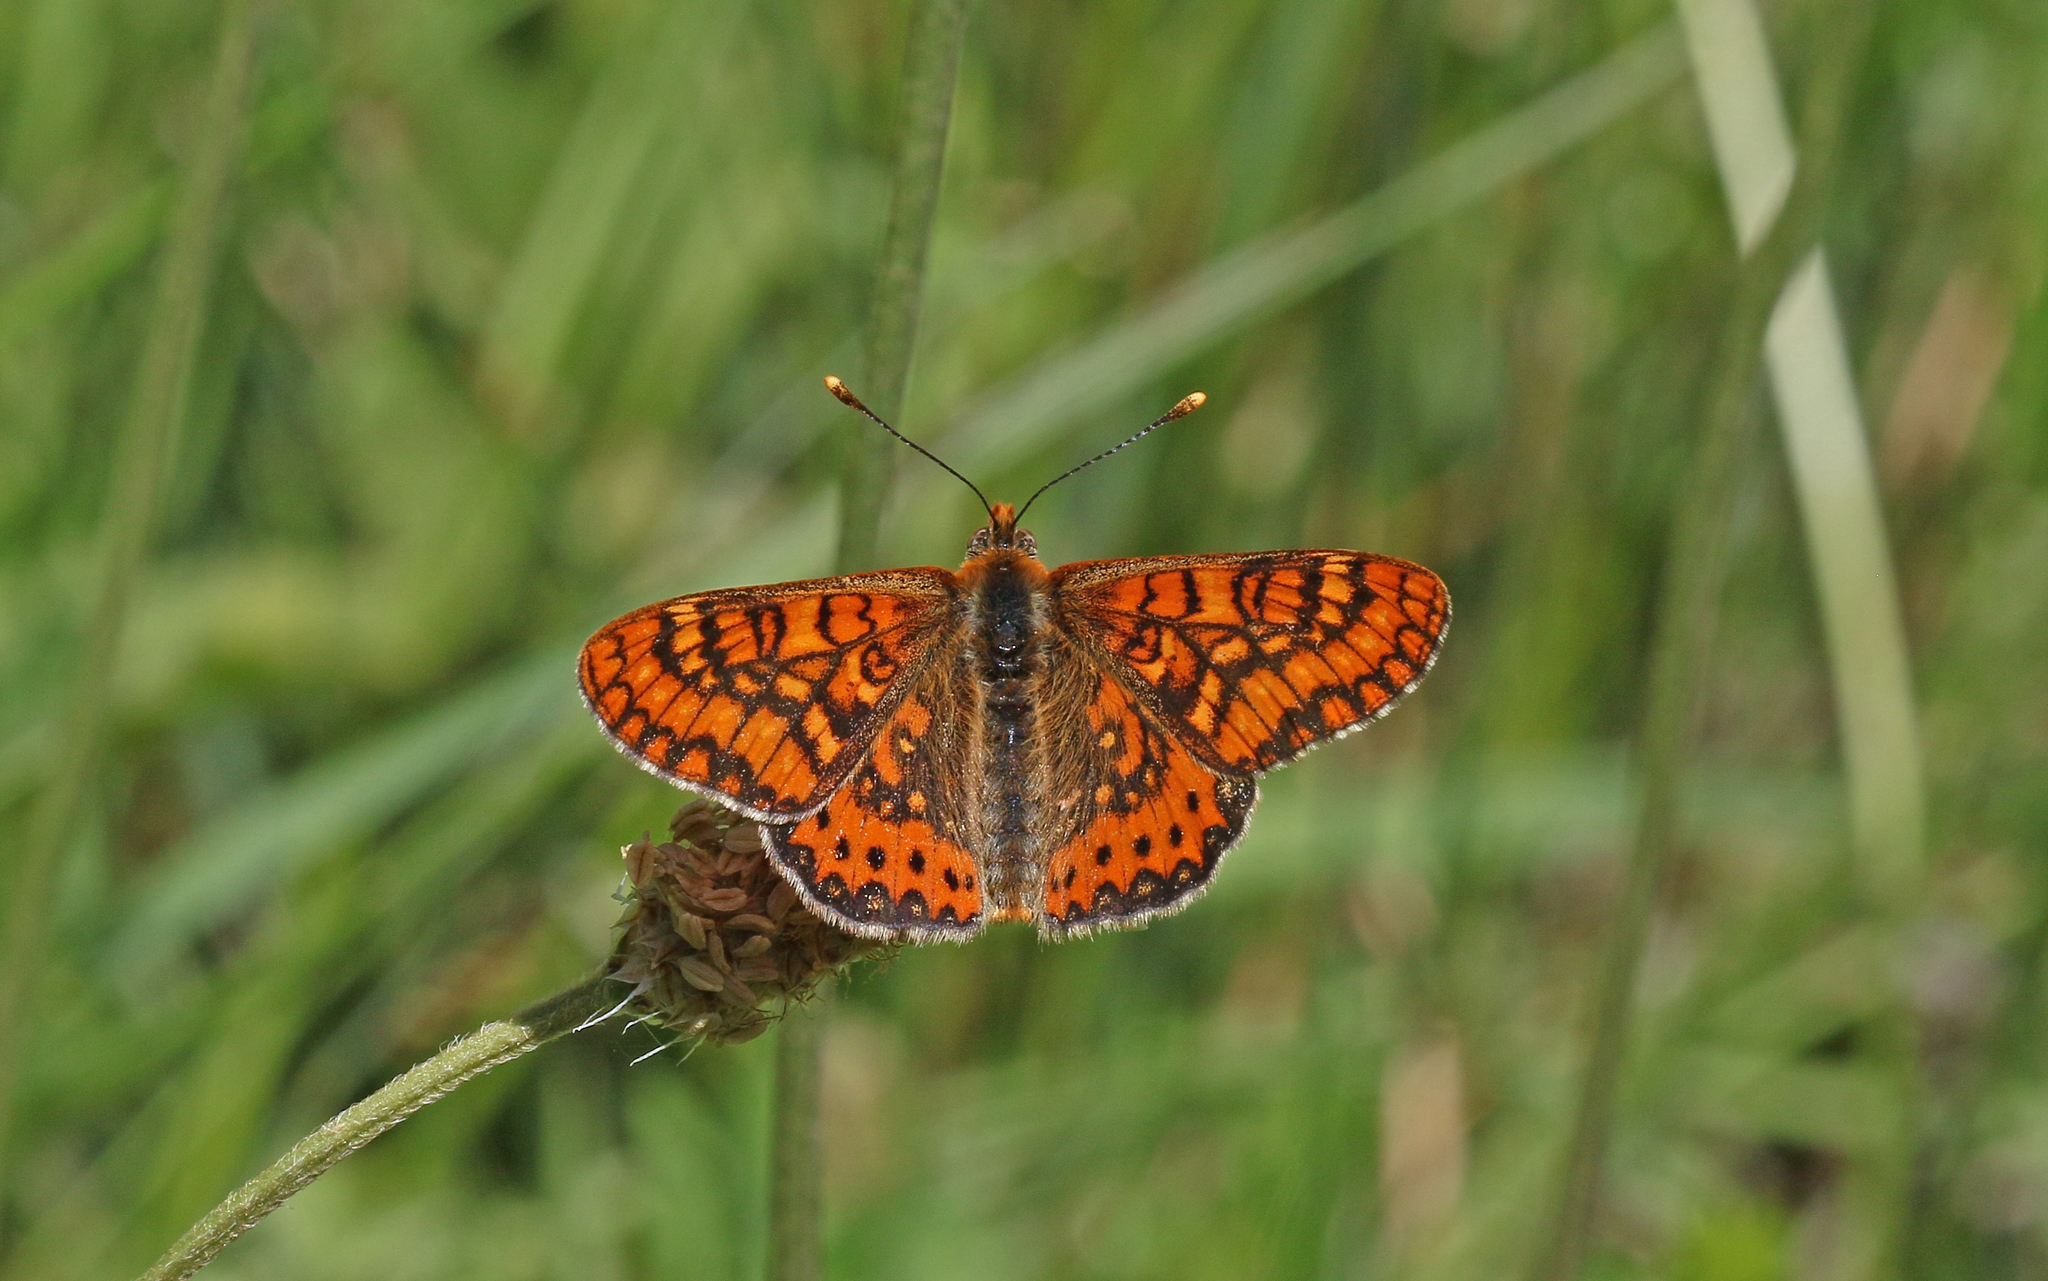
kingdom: Animalia
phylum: Arthropoda
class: Insecta
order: Lepidoptera
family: Nymphalidae
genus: Euphydryas
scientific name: Euphydryas aurinia
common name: Marsh fritillary
